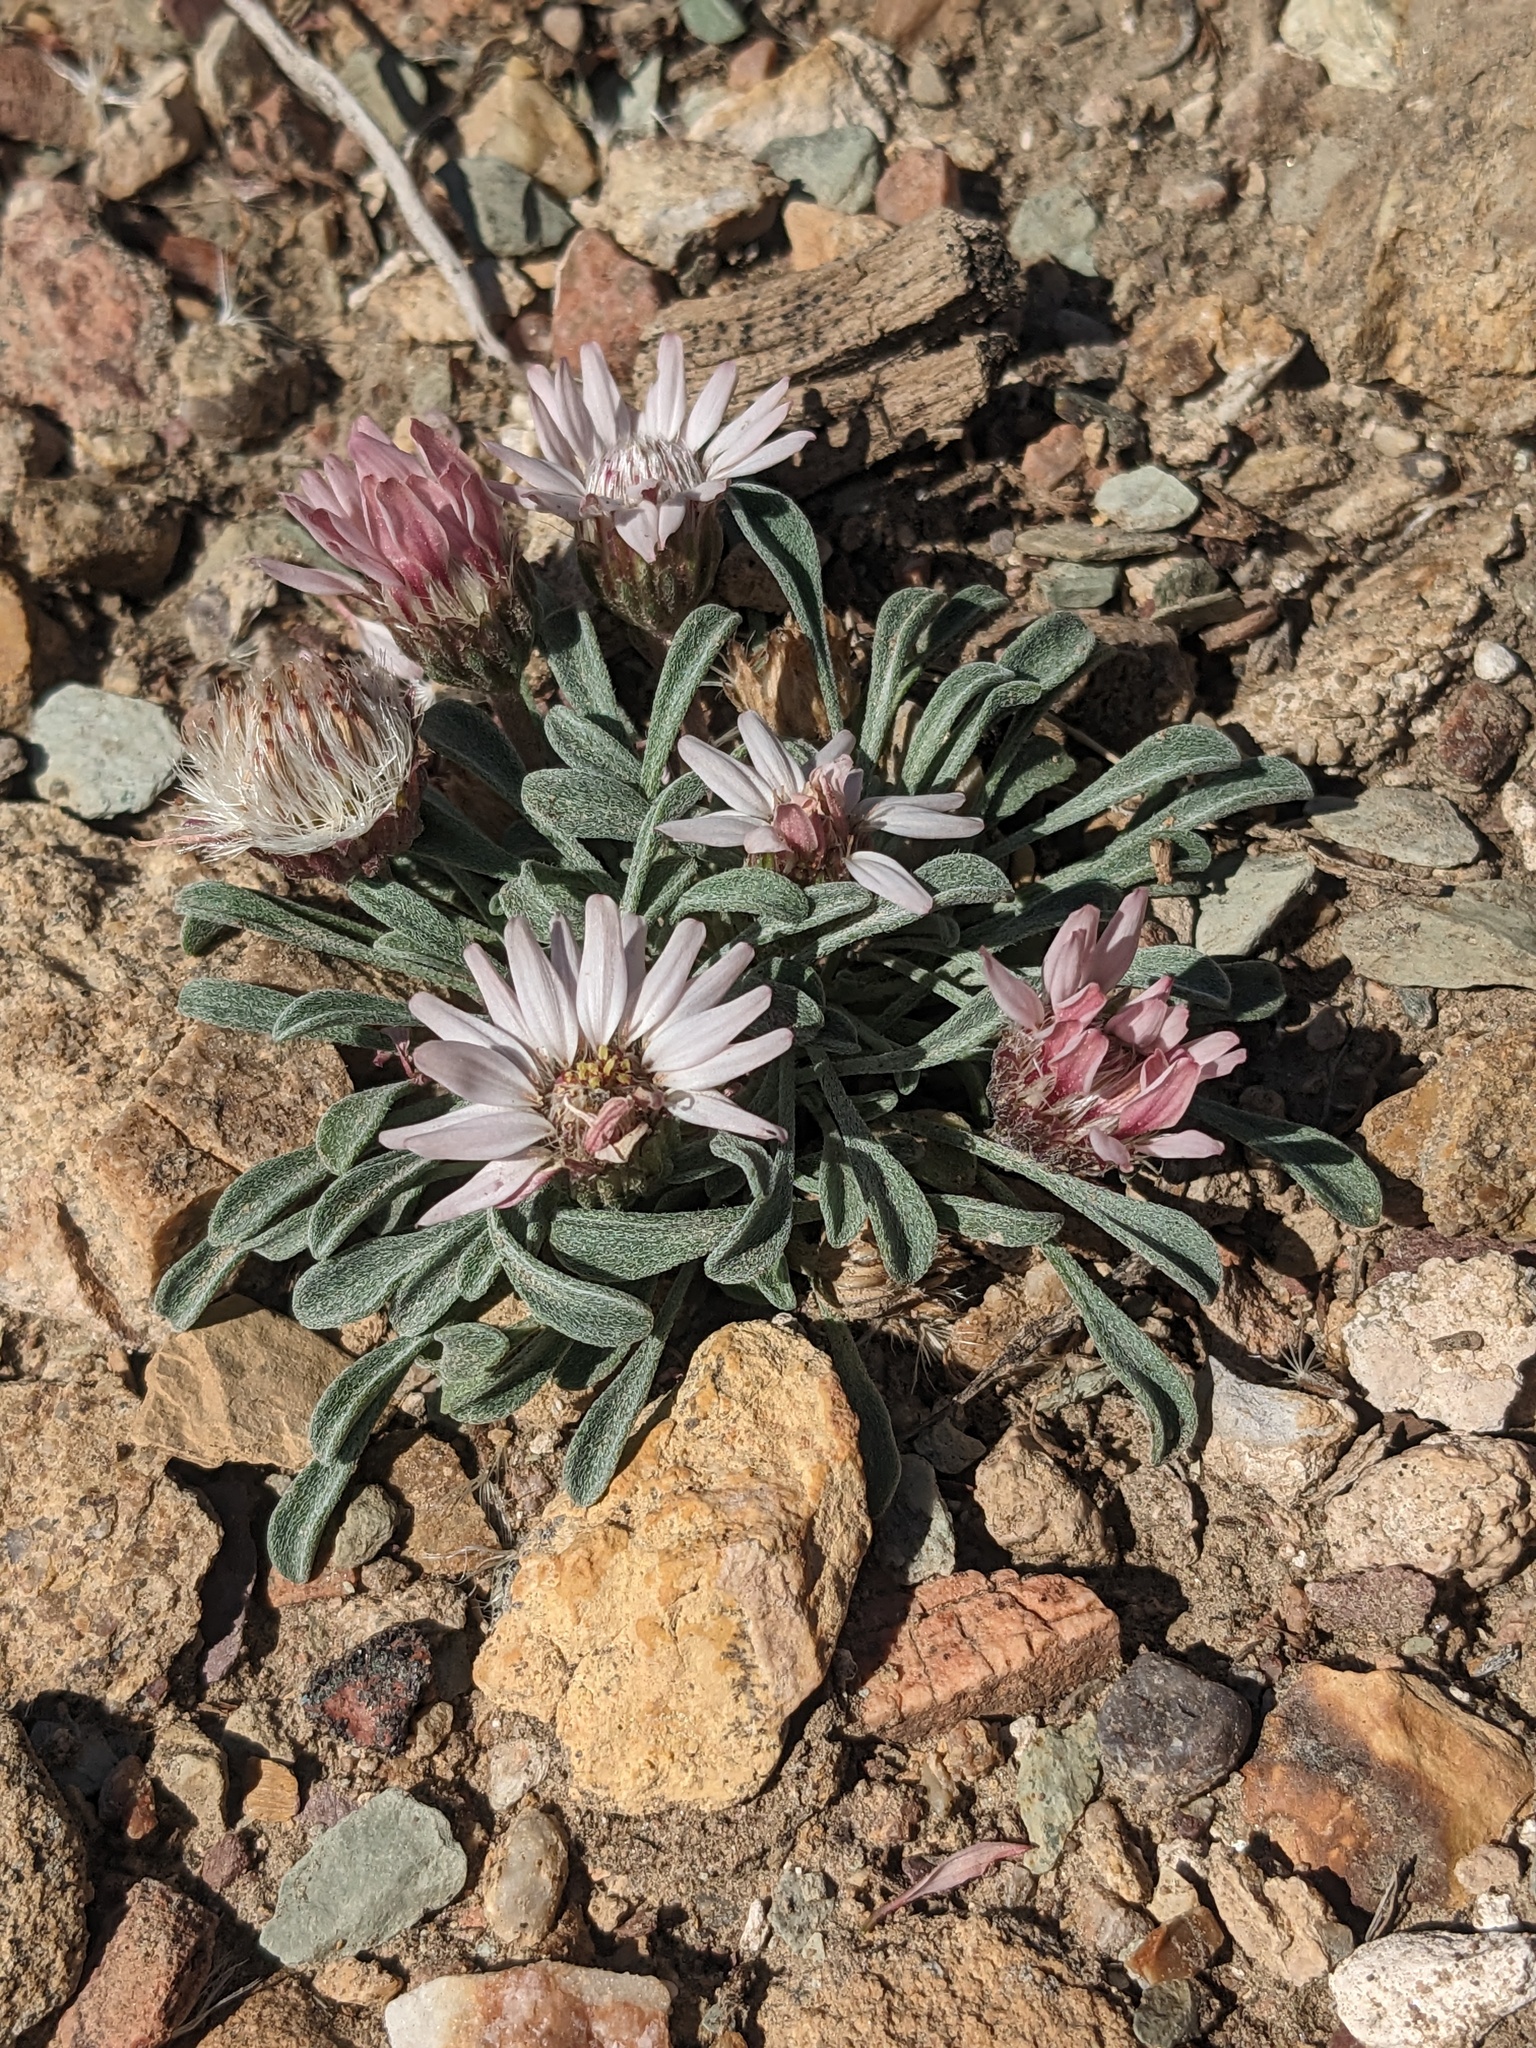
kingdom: Plantae
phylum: Tracheophyta
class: Magnoliopsida
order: Asterales
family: Asteraceae
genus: Townsendia
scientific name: Townsendia scapigera
